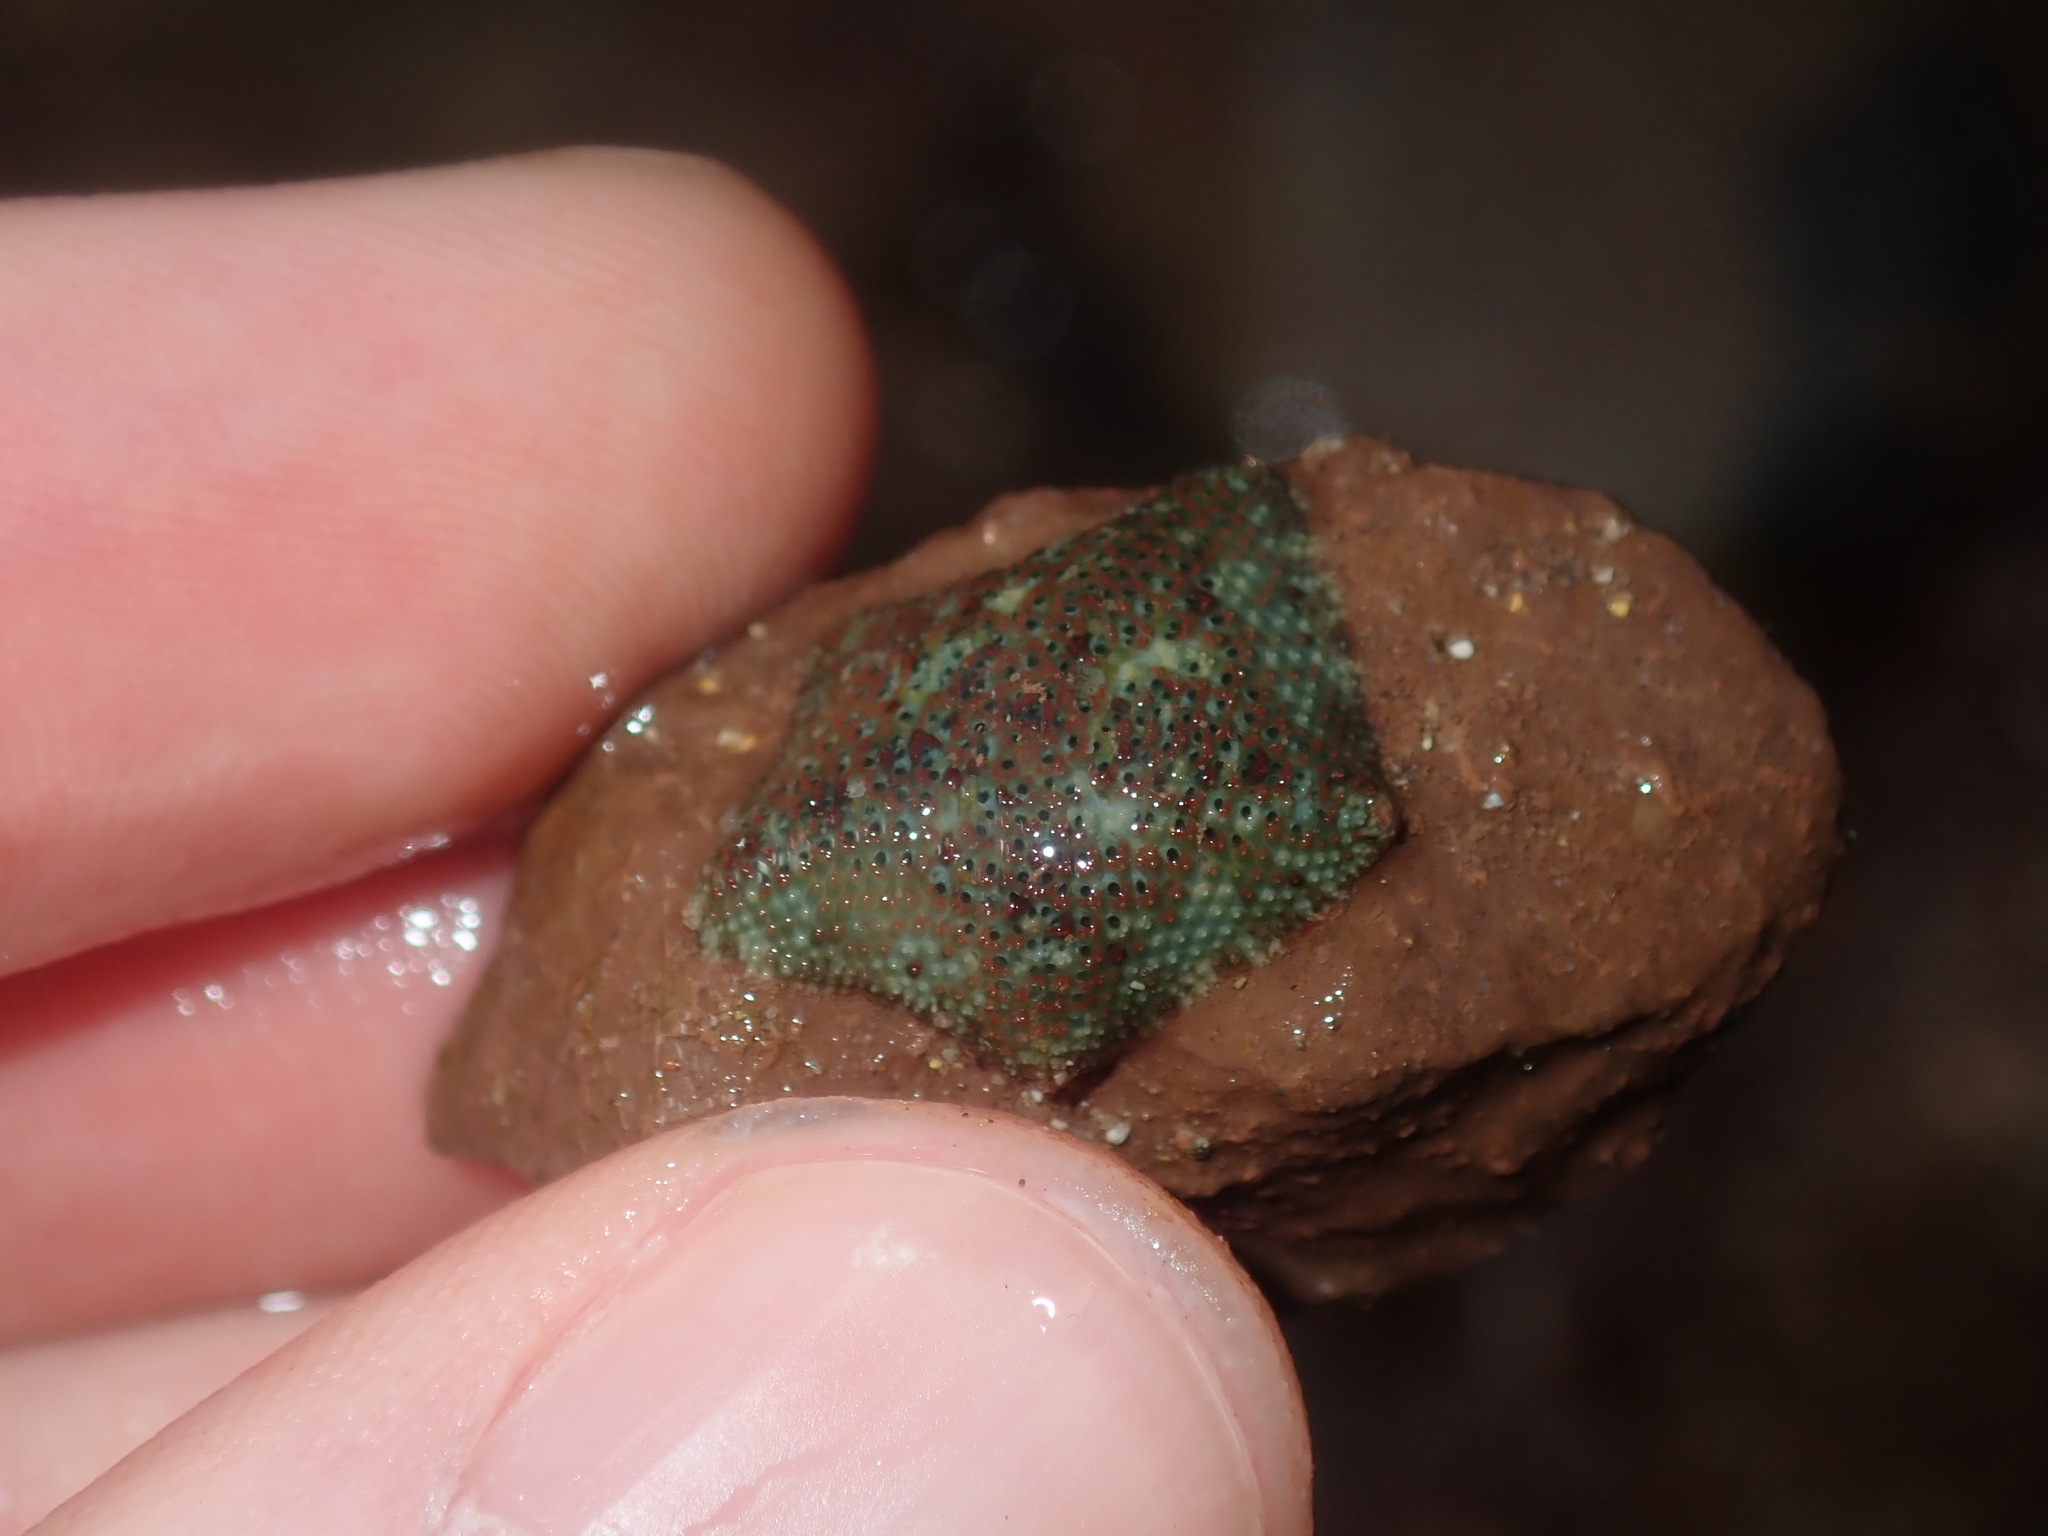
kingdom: Animalia
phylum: Echinodermata
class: Asteroidea
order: Valvatida
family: Asterinidae
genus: Parvulastra
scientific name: Parvulastra exigua
